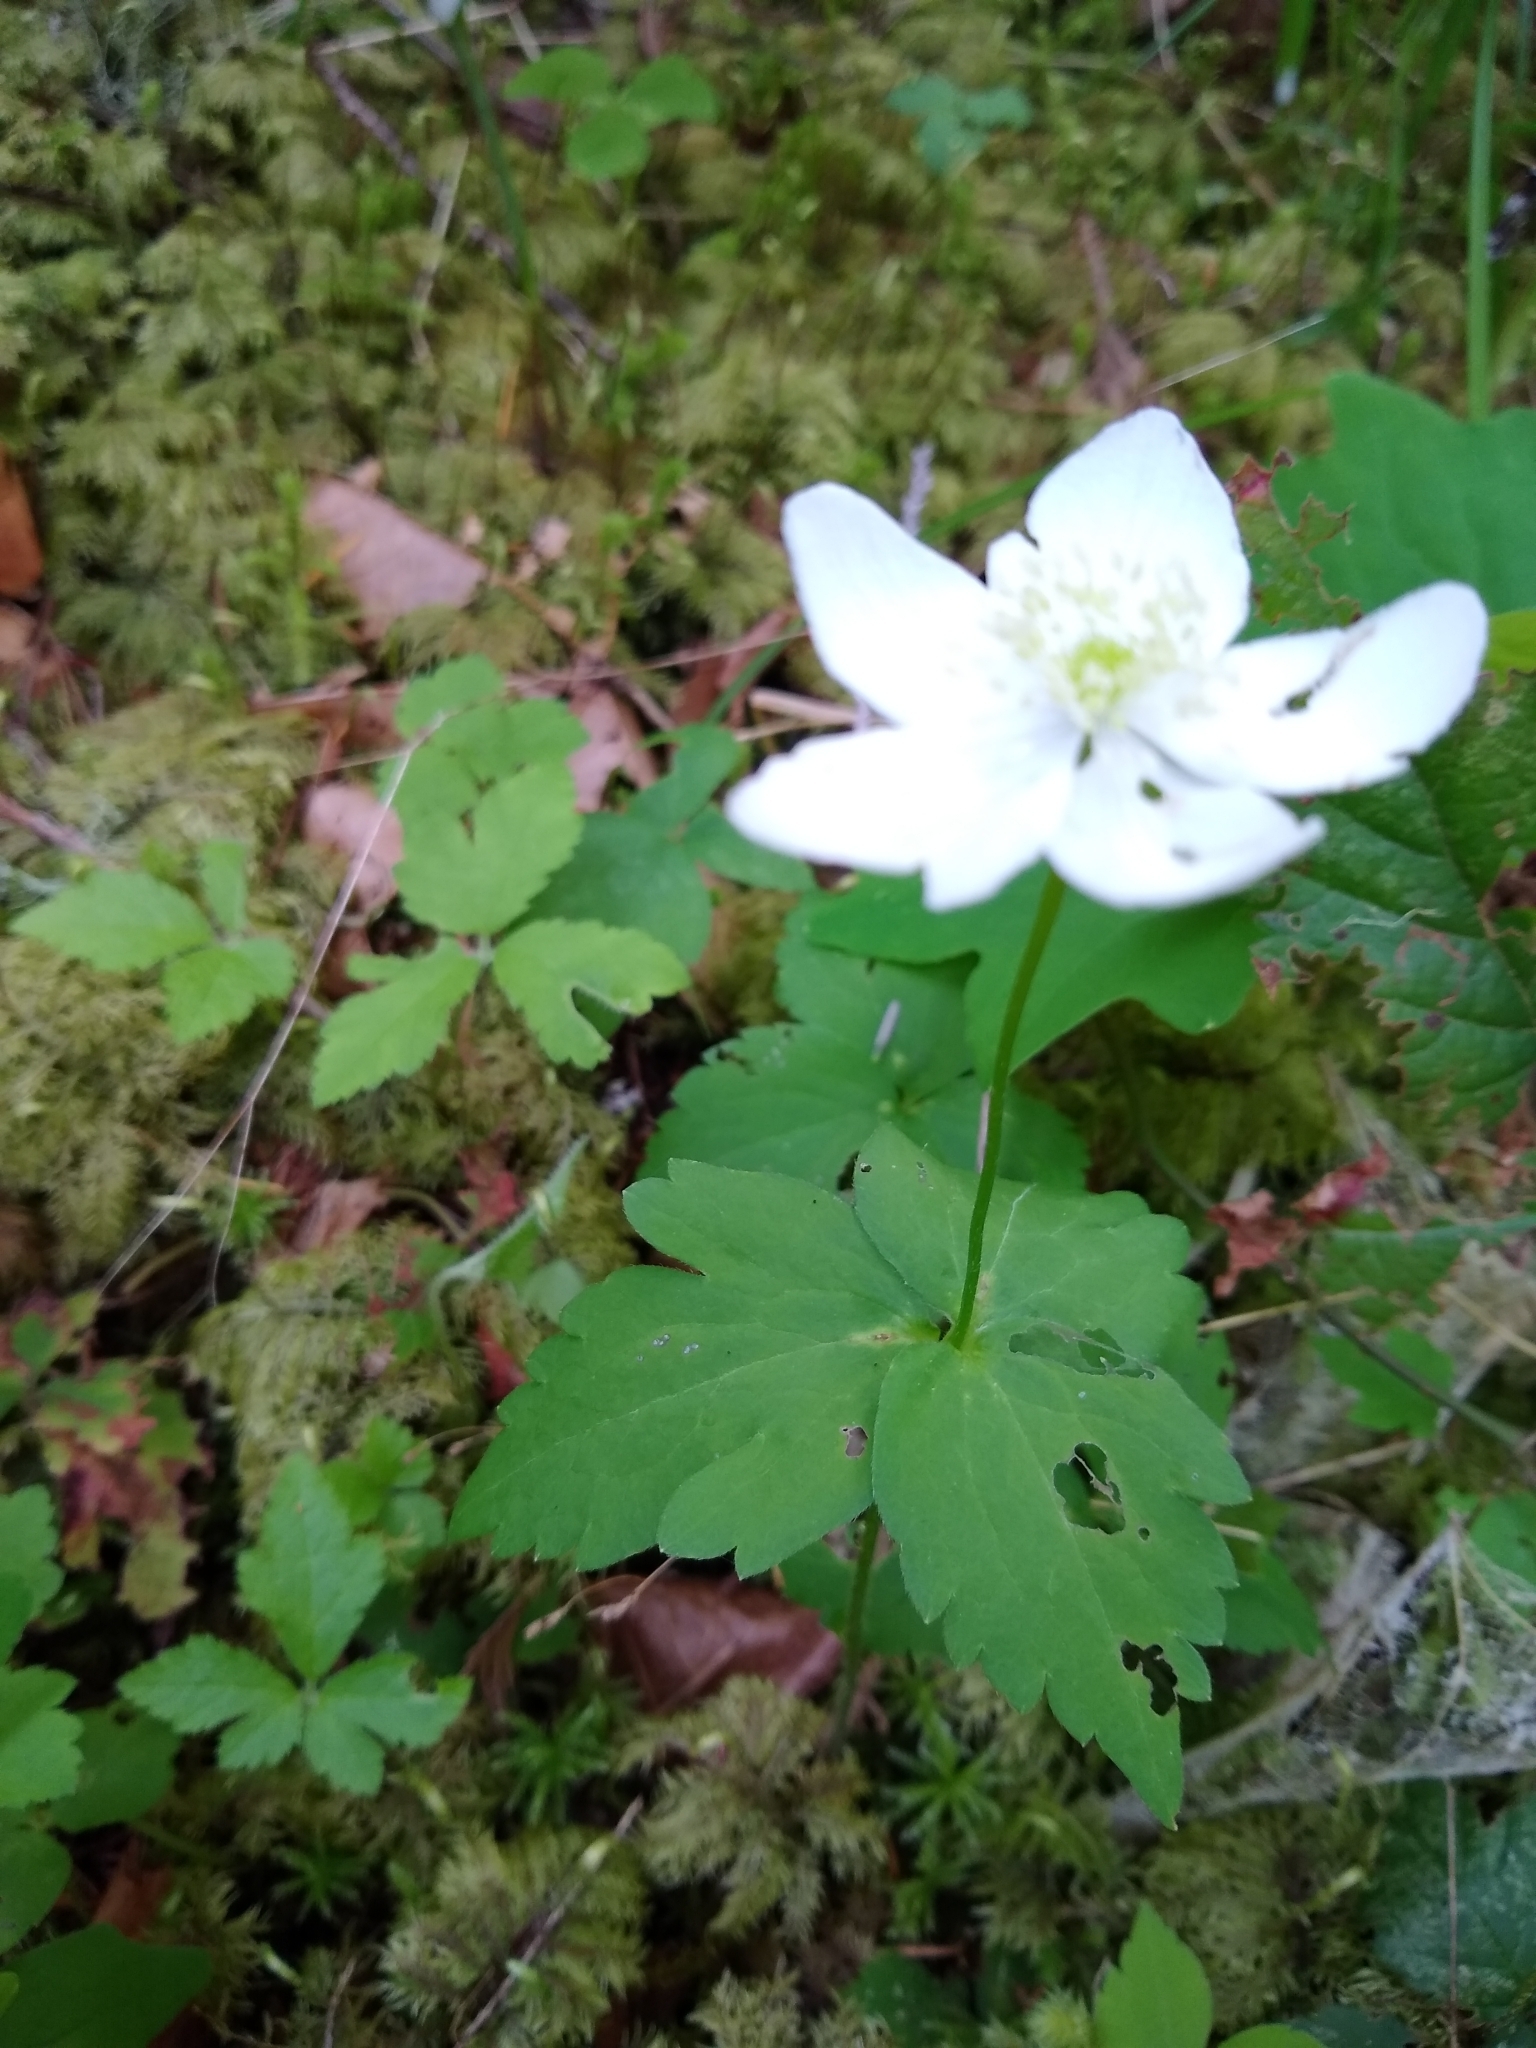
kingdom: Plantae
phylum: Tracheophyta
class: Magnoliopsida
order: Ranunculales
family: Ranunculaceae
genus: Anemonastrum
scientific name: Anemonastrum deltoideum
